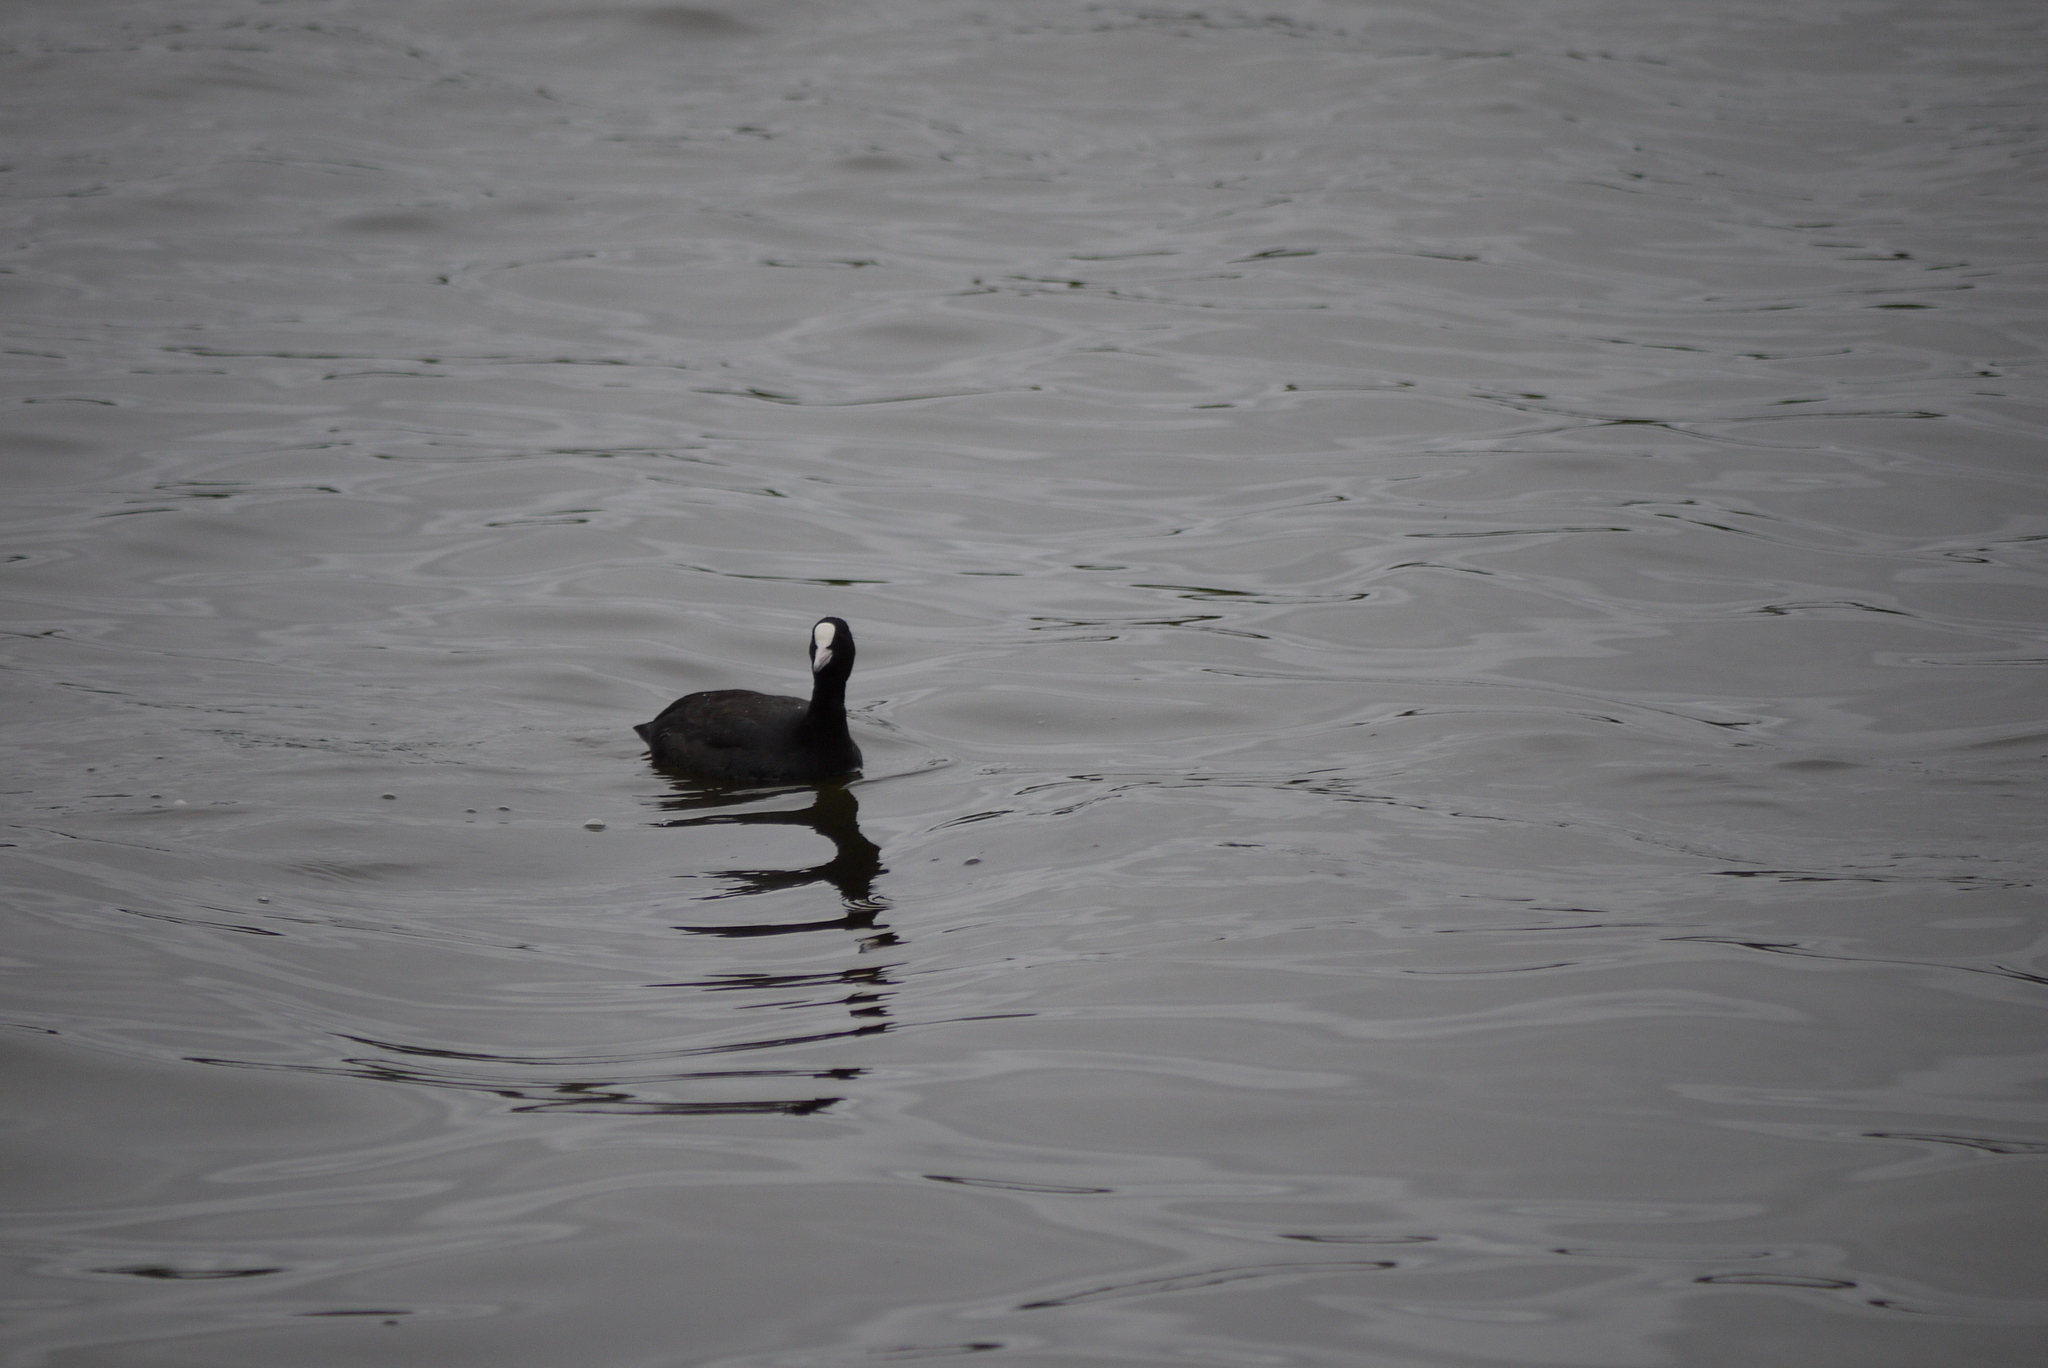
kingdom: Animalia
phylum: Chordata
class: Aves
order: Gruiformes
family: Rallidae
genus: Fulica
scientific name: Fulica atra
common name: Eurasian coot
